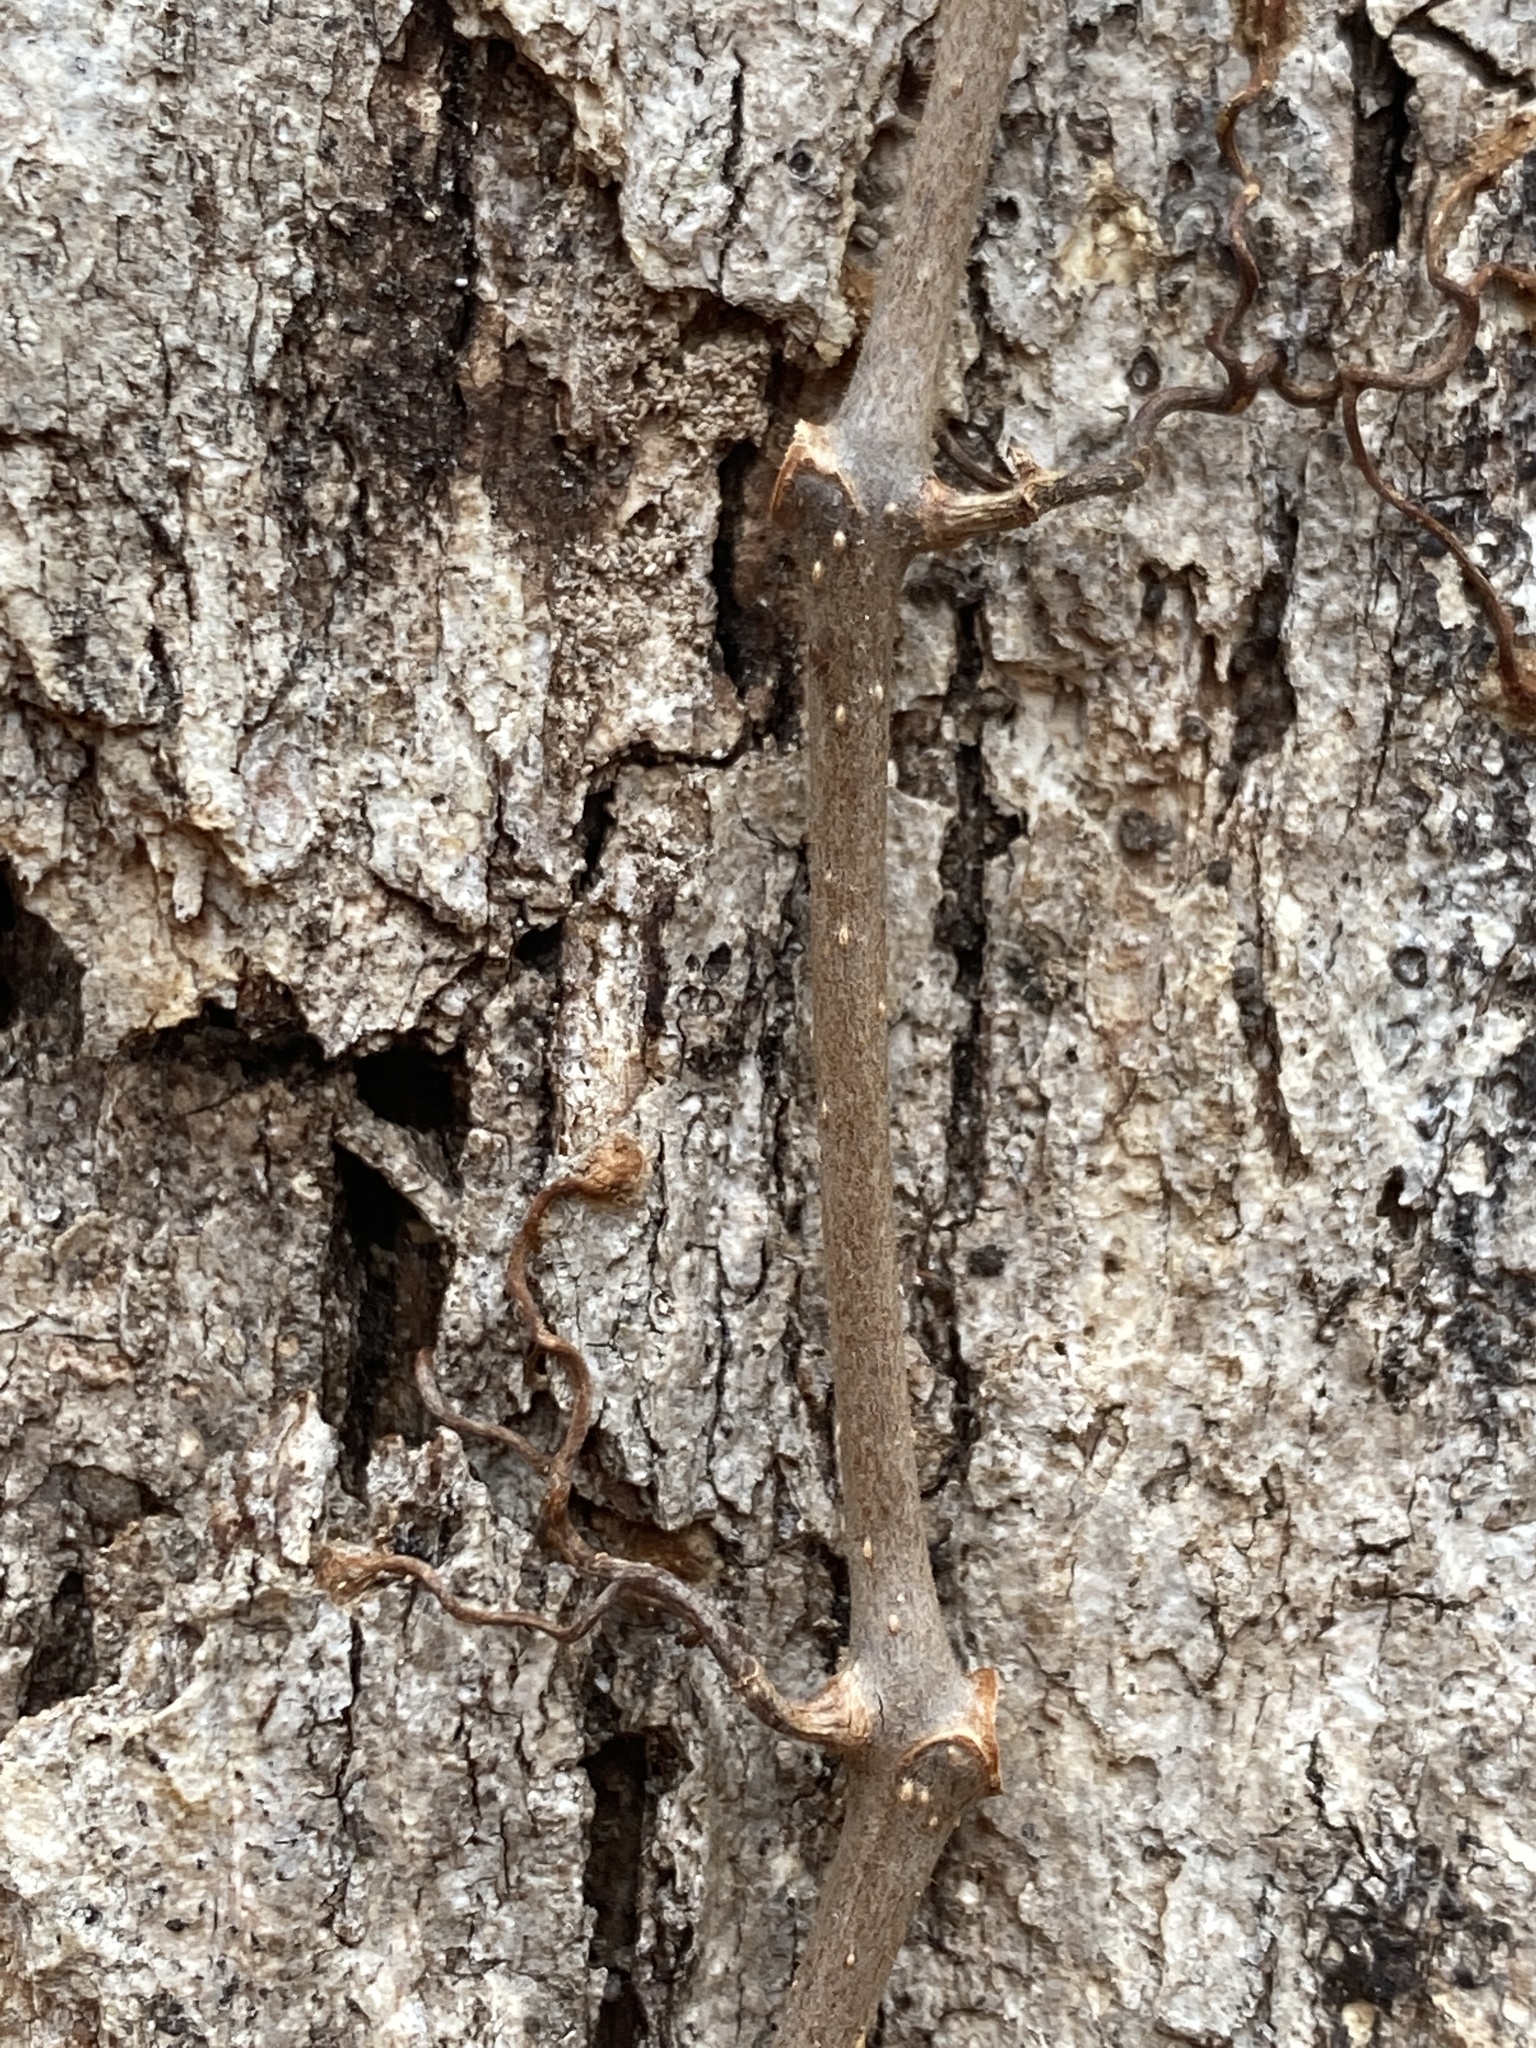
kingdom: Plantae
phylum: Tracheophyta
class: Magnoliopsida
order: Vitales
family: Vitaceae
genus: Parthenocissus
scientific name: Parthenocissus quinquefolia
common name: Virginia-creeper
